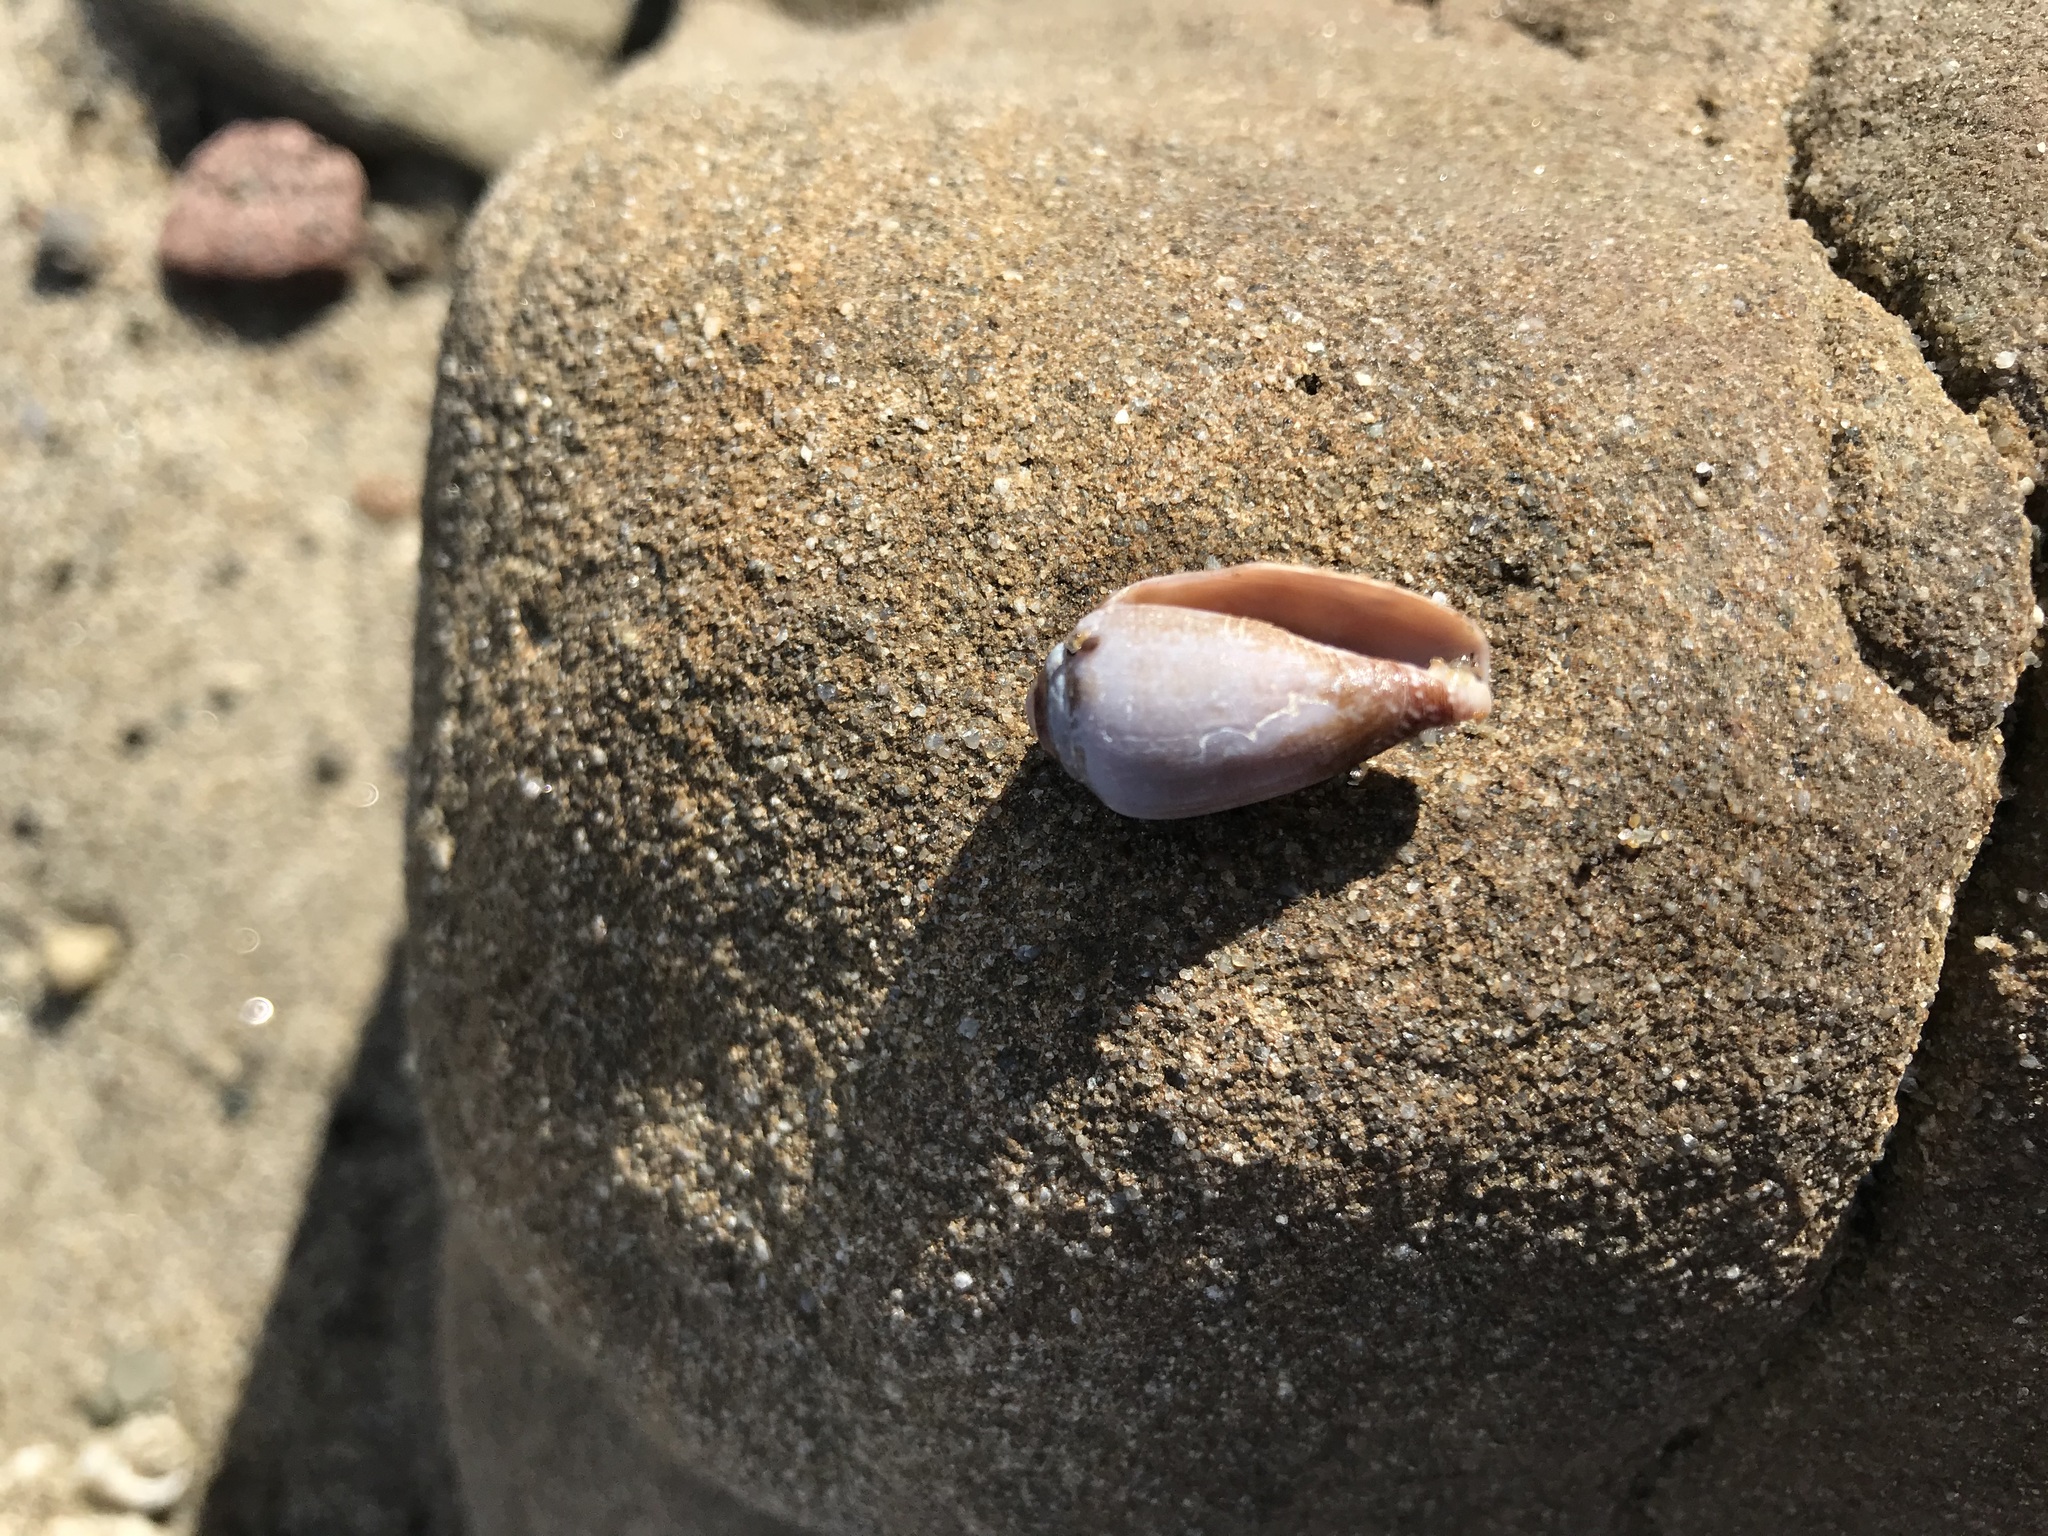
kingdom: Animalia
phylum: Mollusca
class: Gastropoda
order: Neogastropoda
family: Conidae
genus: Californiconus
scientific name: Californiconus californicus
